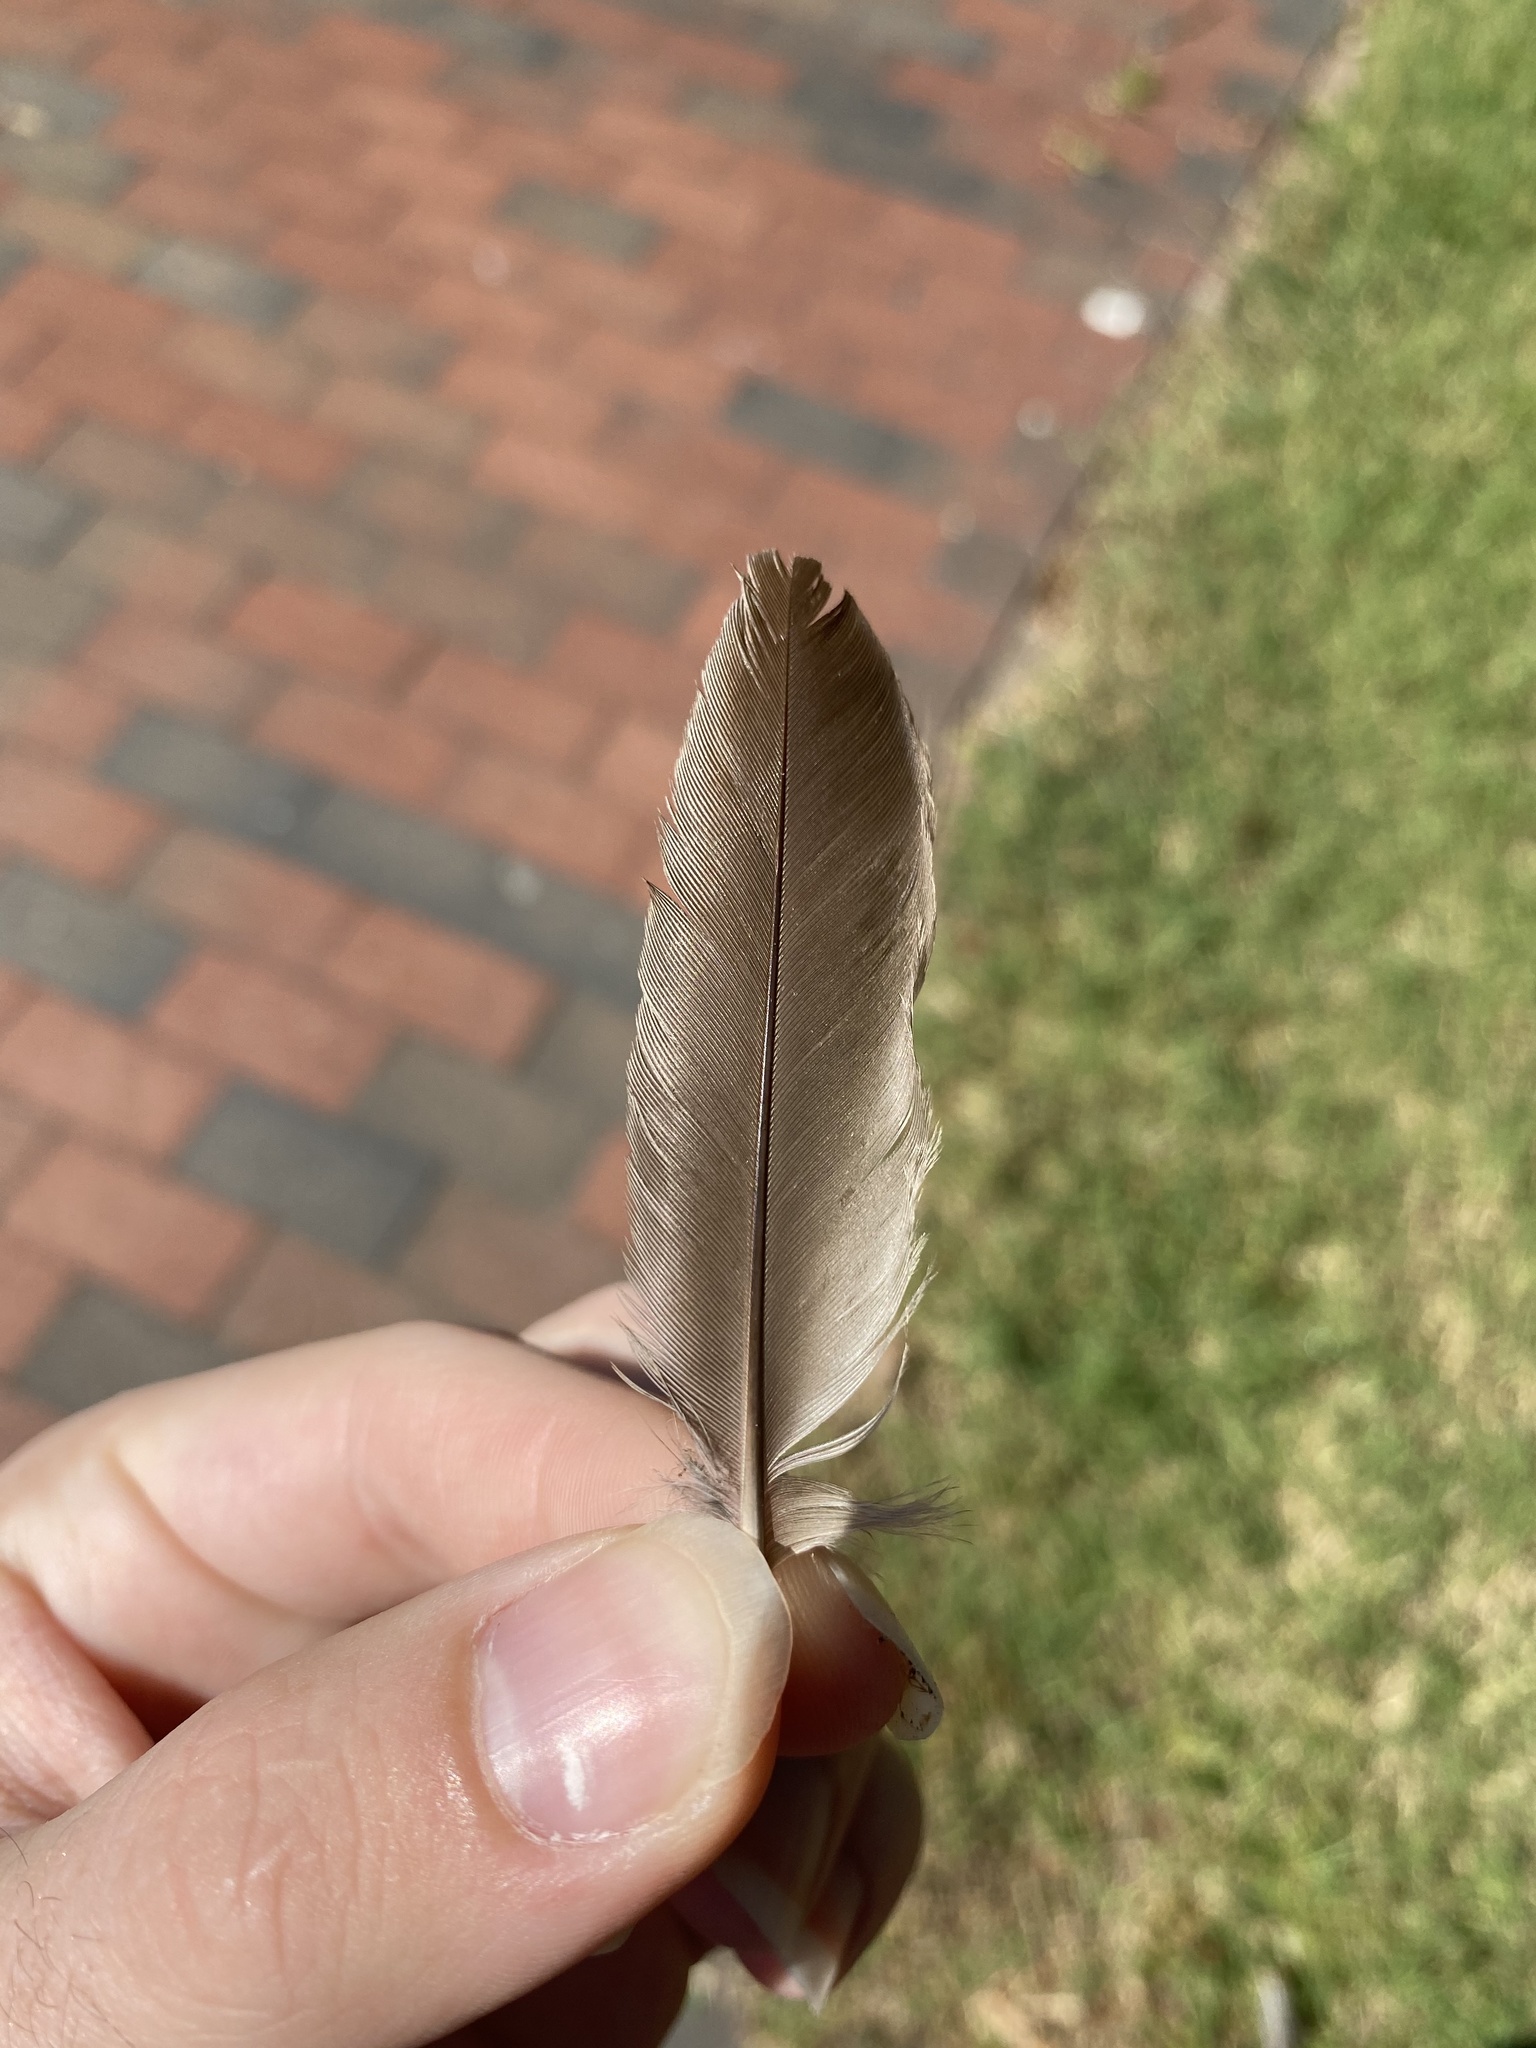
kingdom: Animalia
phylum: Chordata
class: Aves
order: Passeriformes
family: Turdidae
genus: Turdus
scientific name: Turdus migratorius
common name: American robin
